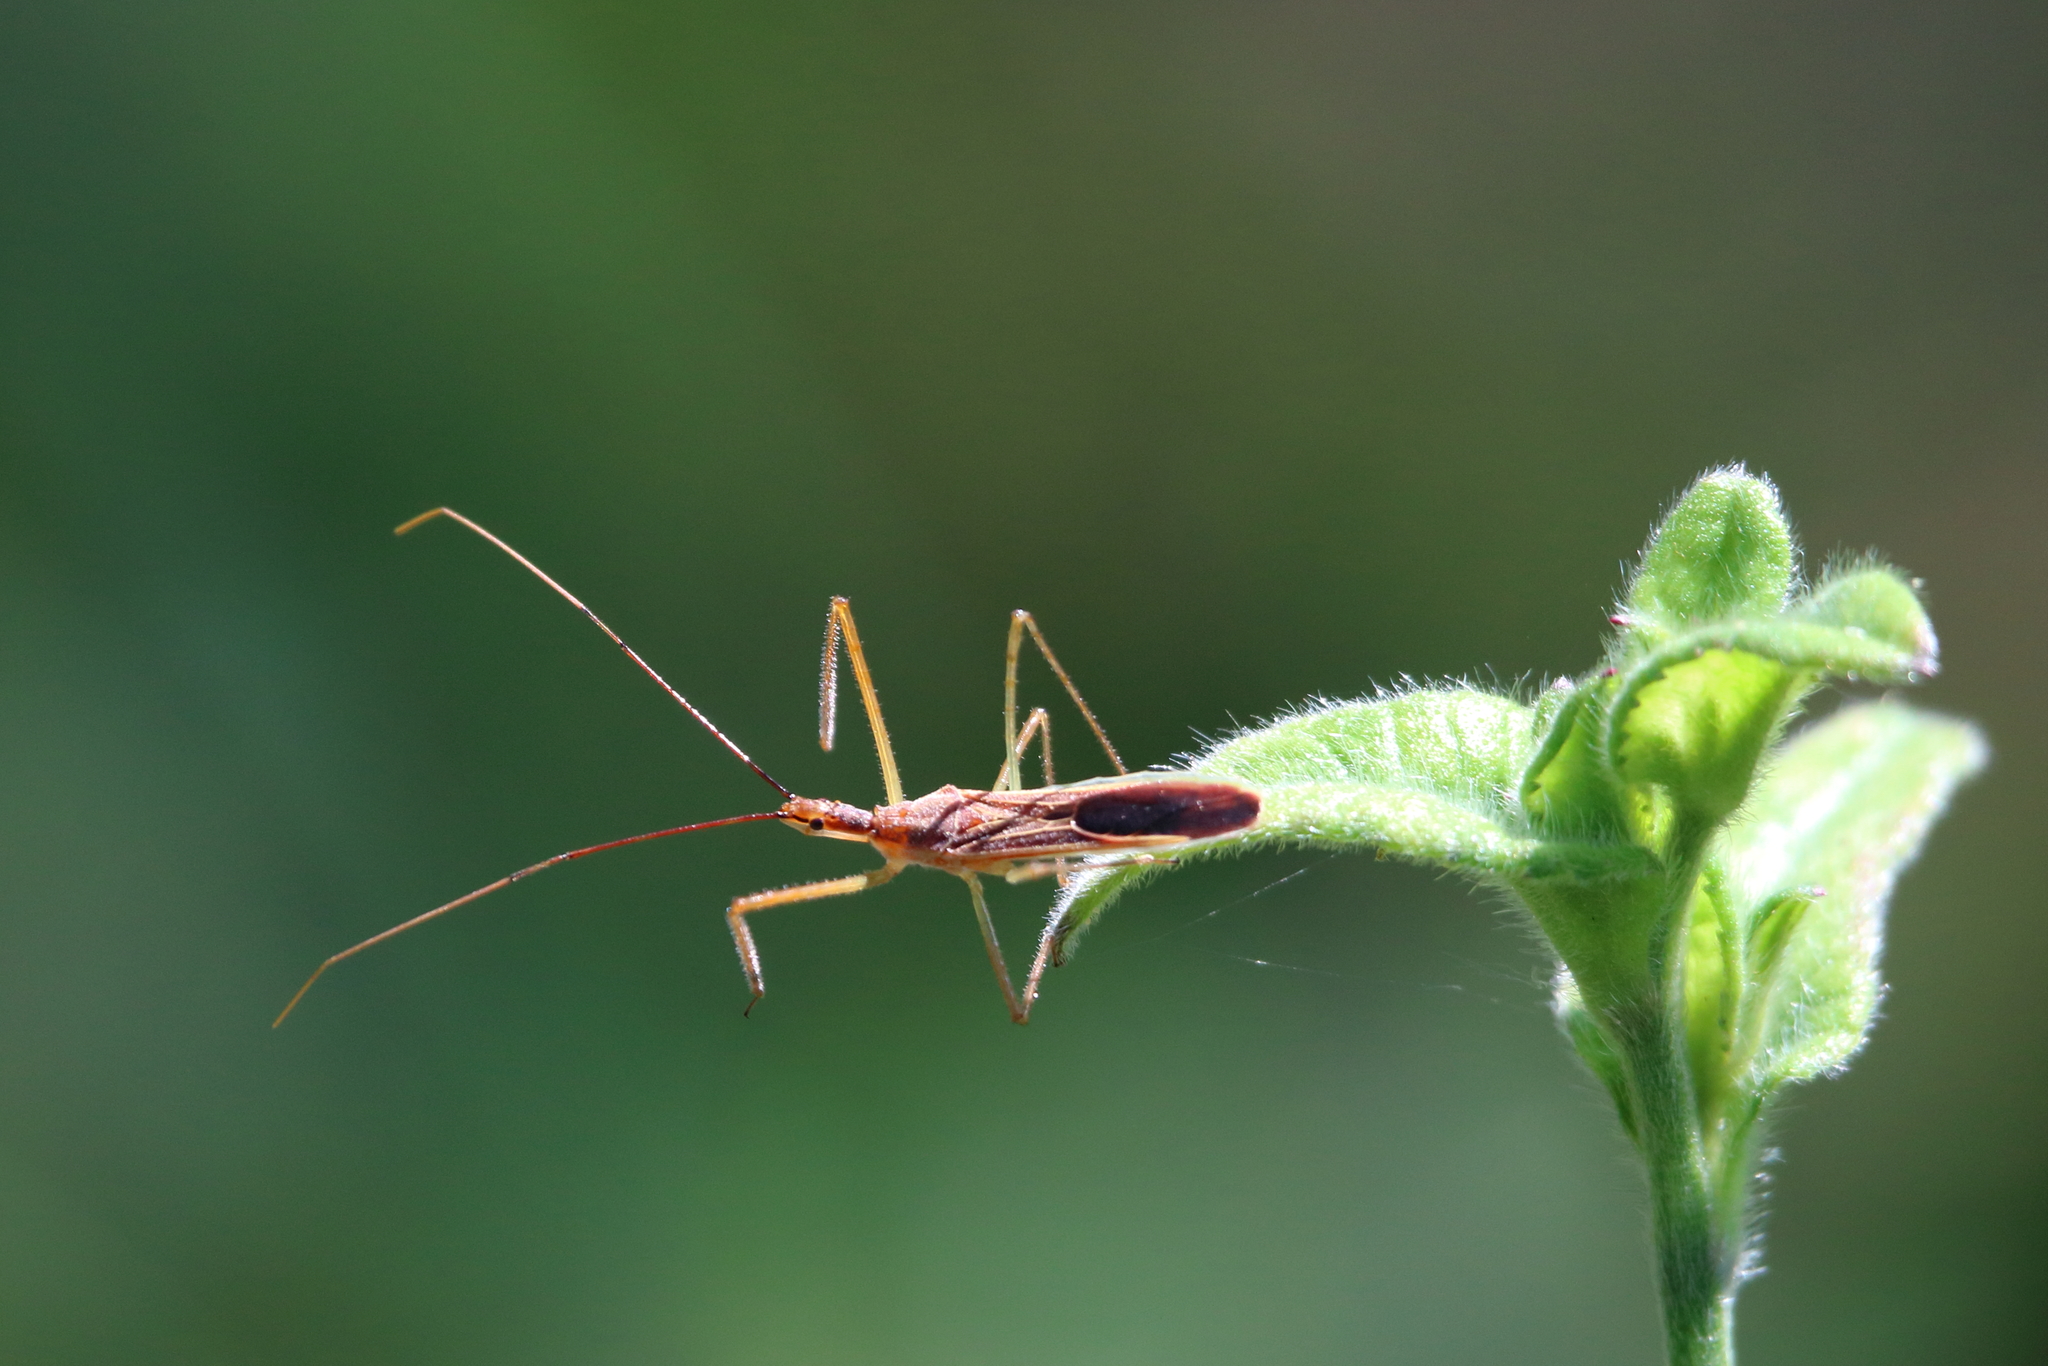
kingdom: Animalia
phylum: Arthropoda
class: Insecta
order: Hemiptera
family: Reduviidae
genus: Zelus
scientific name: Zelus cervicalis
